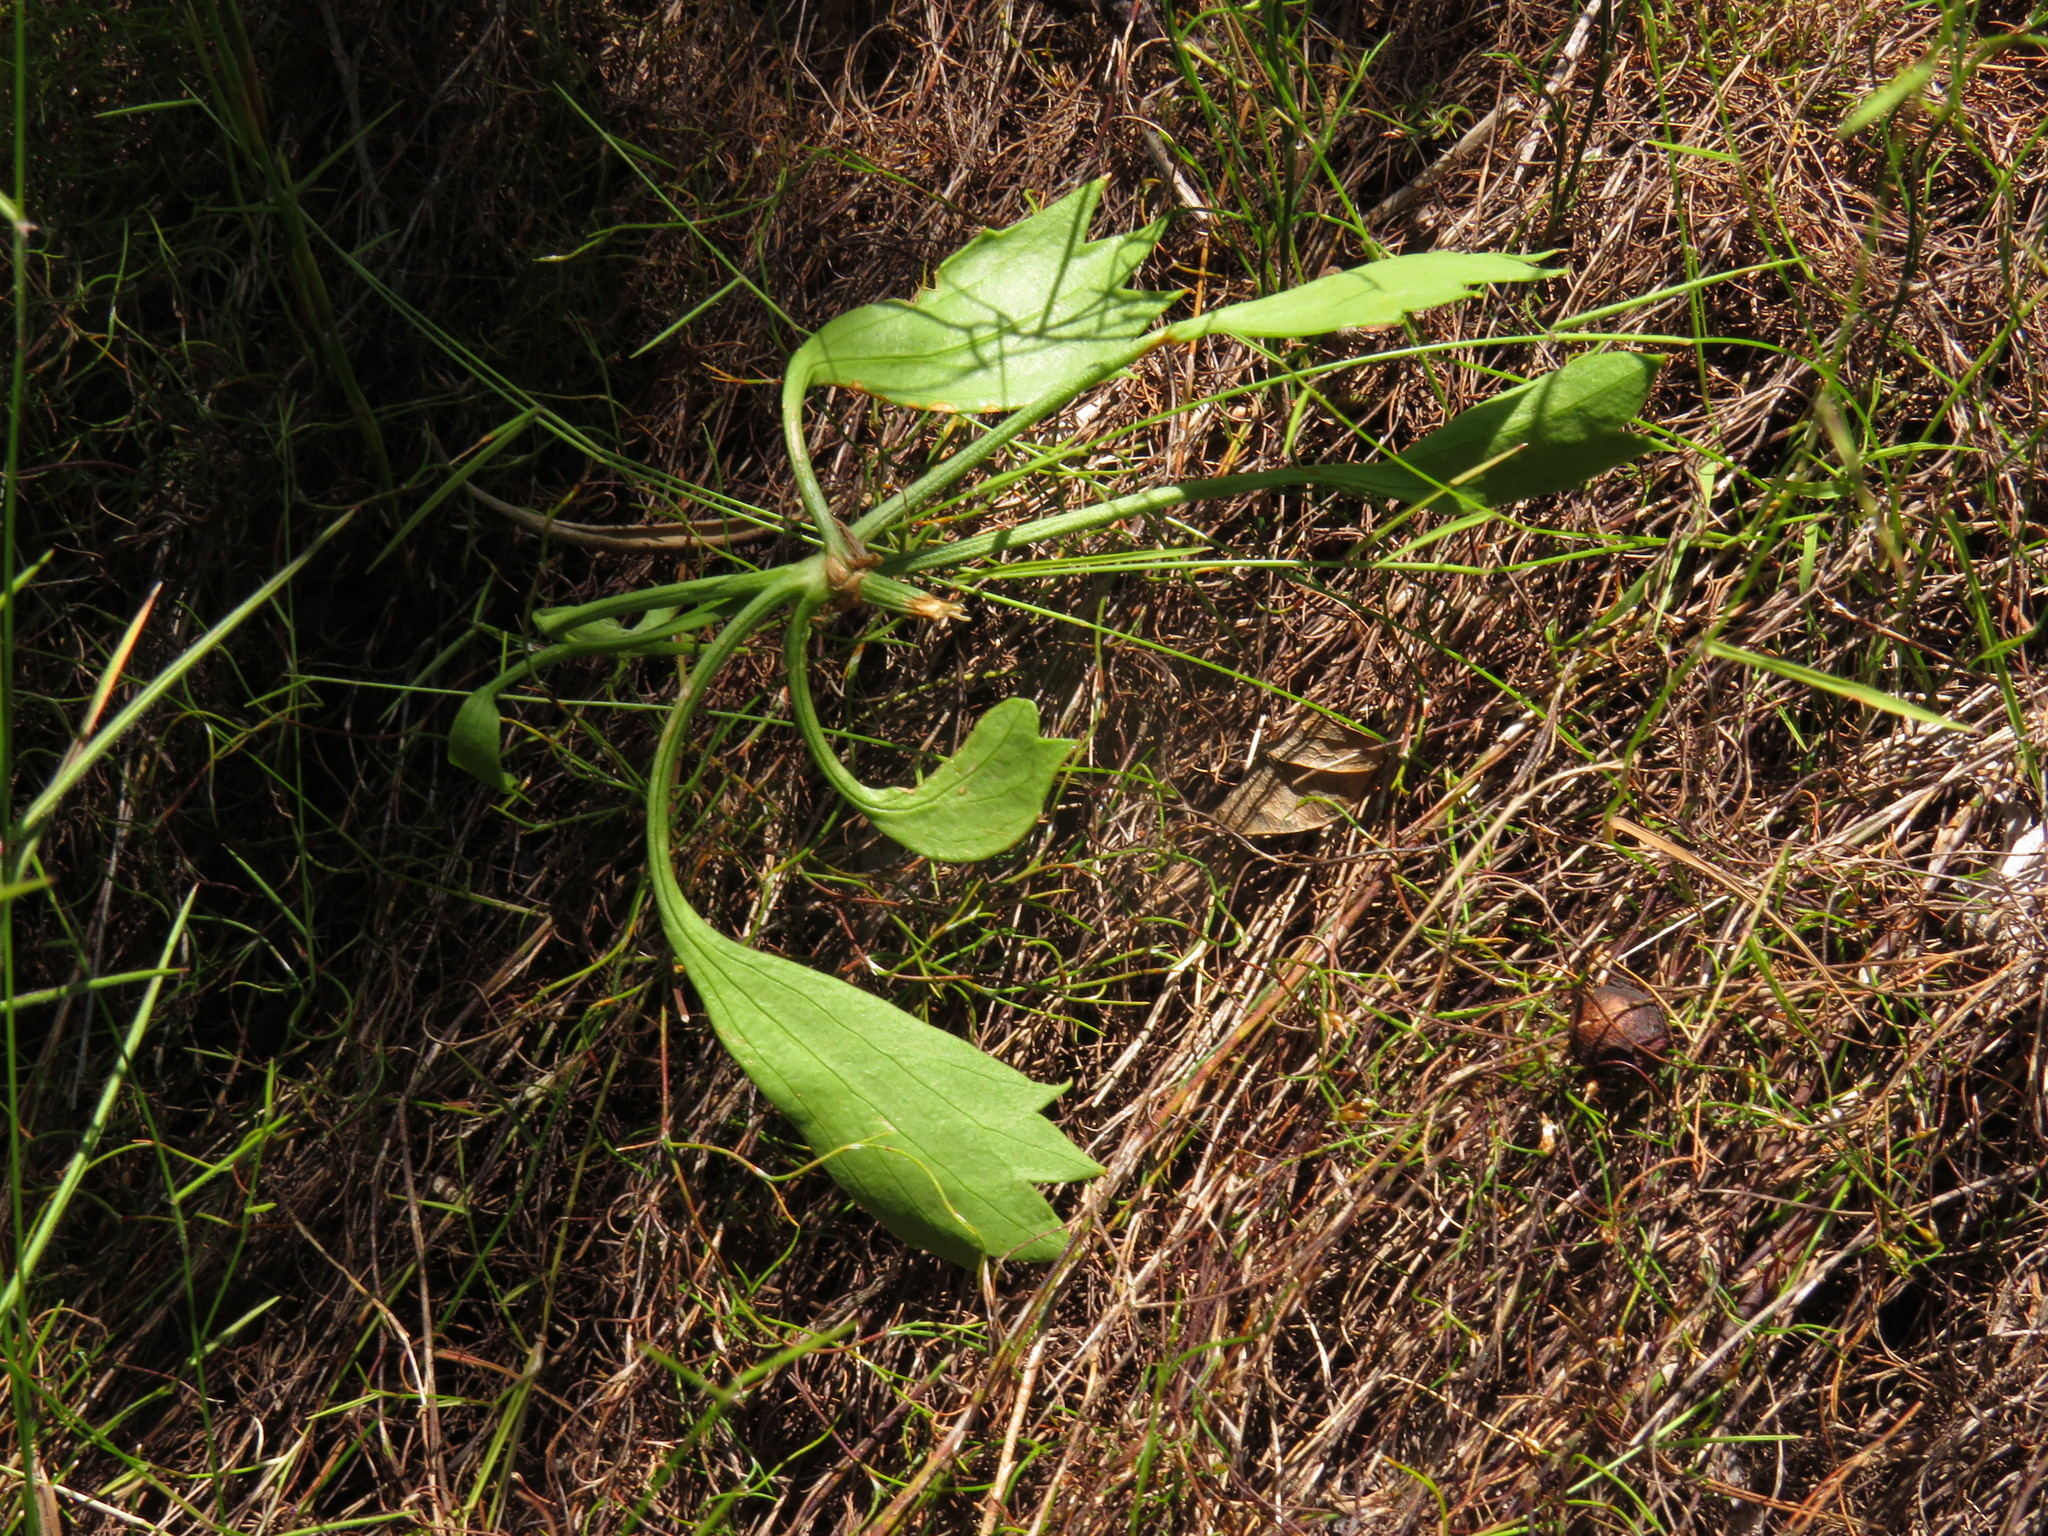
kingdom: Plantae
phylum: Tracheophyta
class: Magnoliopsida
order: Apiales
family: Apiaceae
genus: Centella
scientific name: Centella triloba
